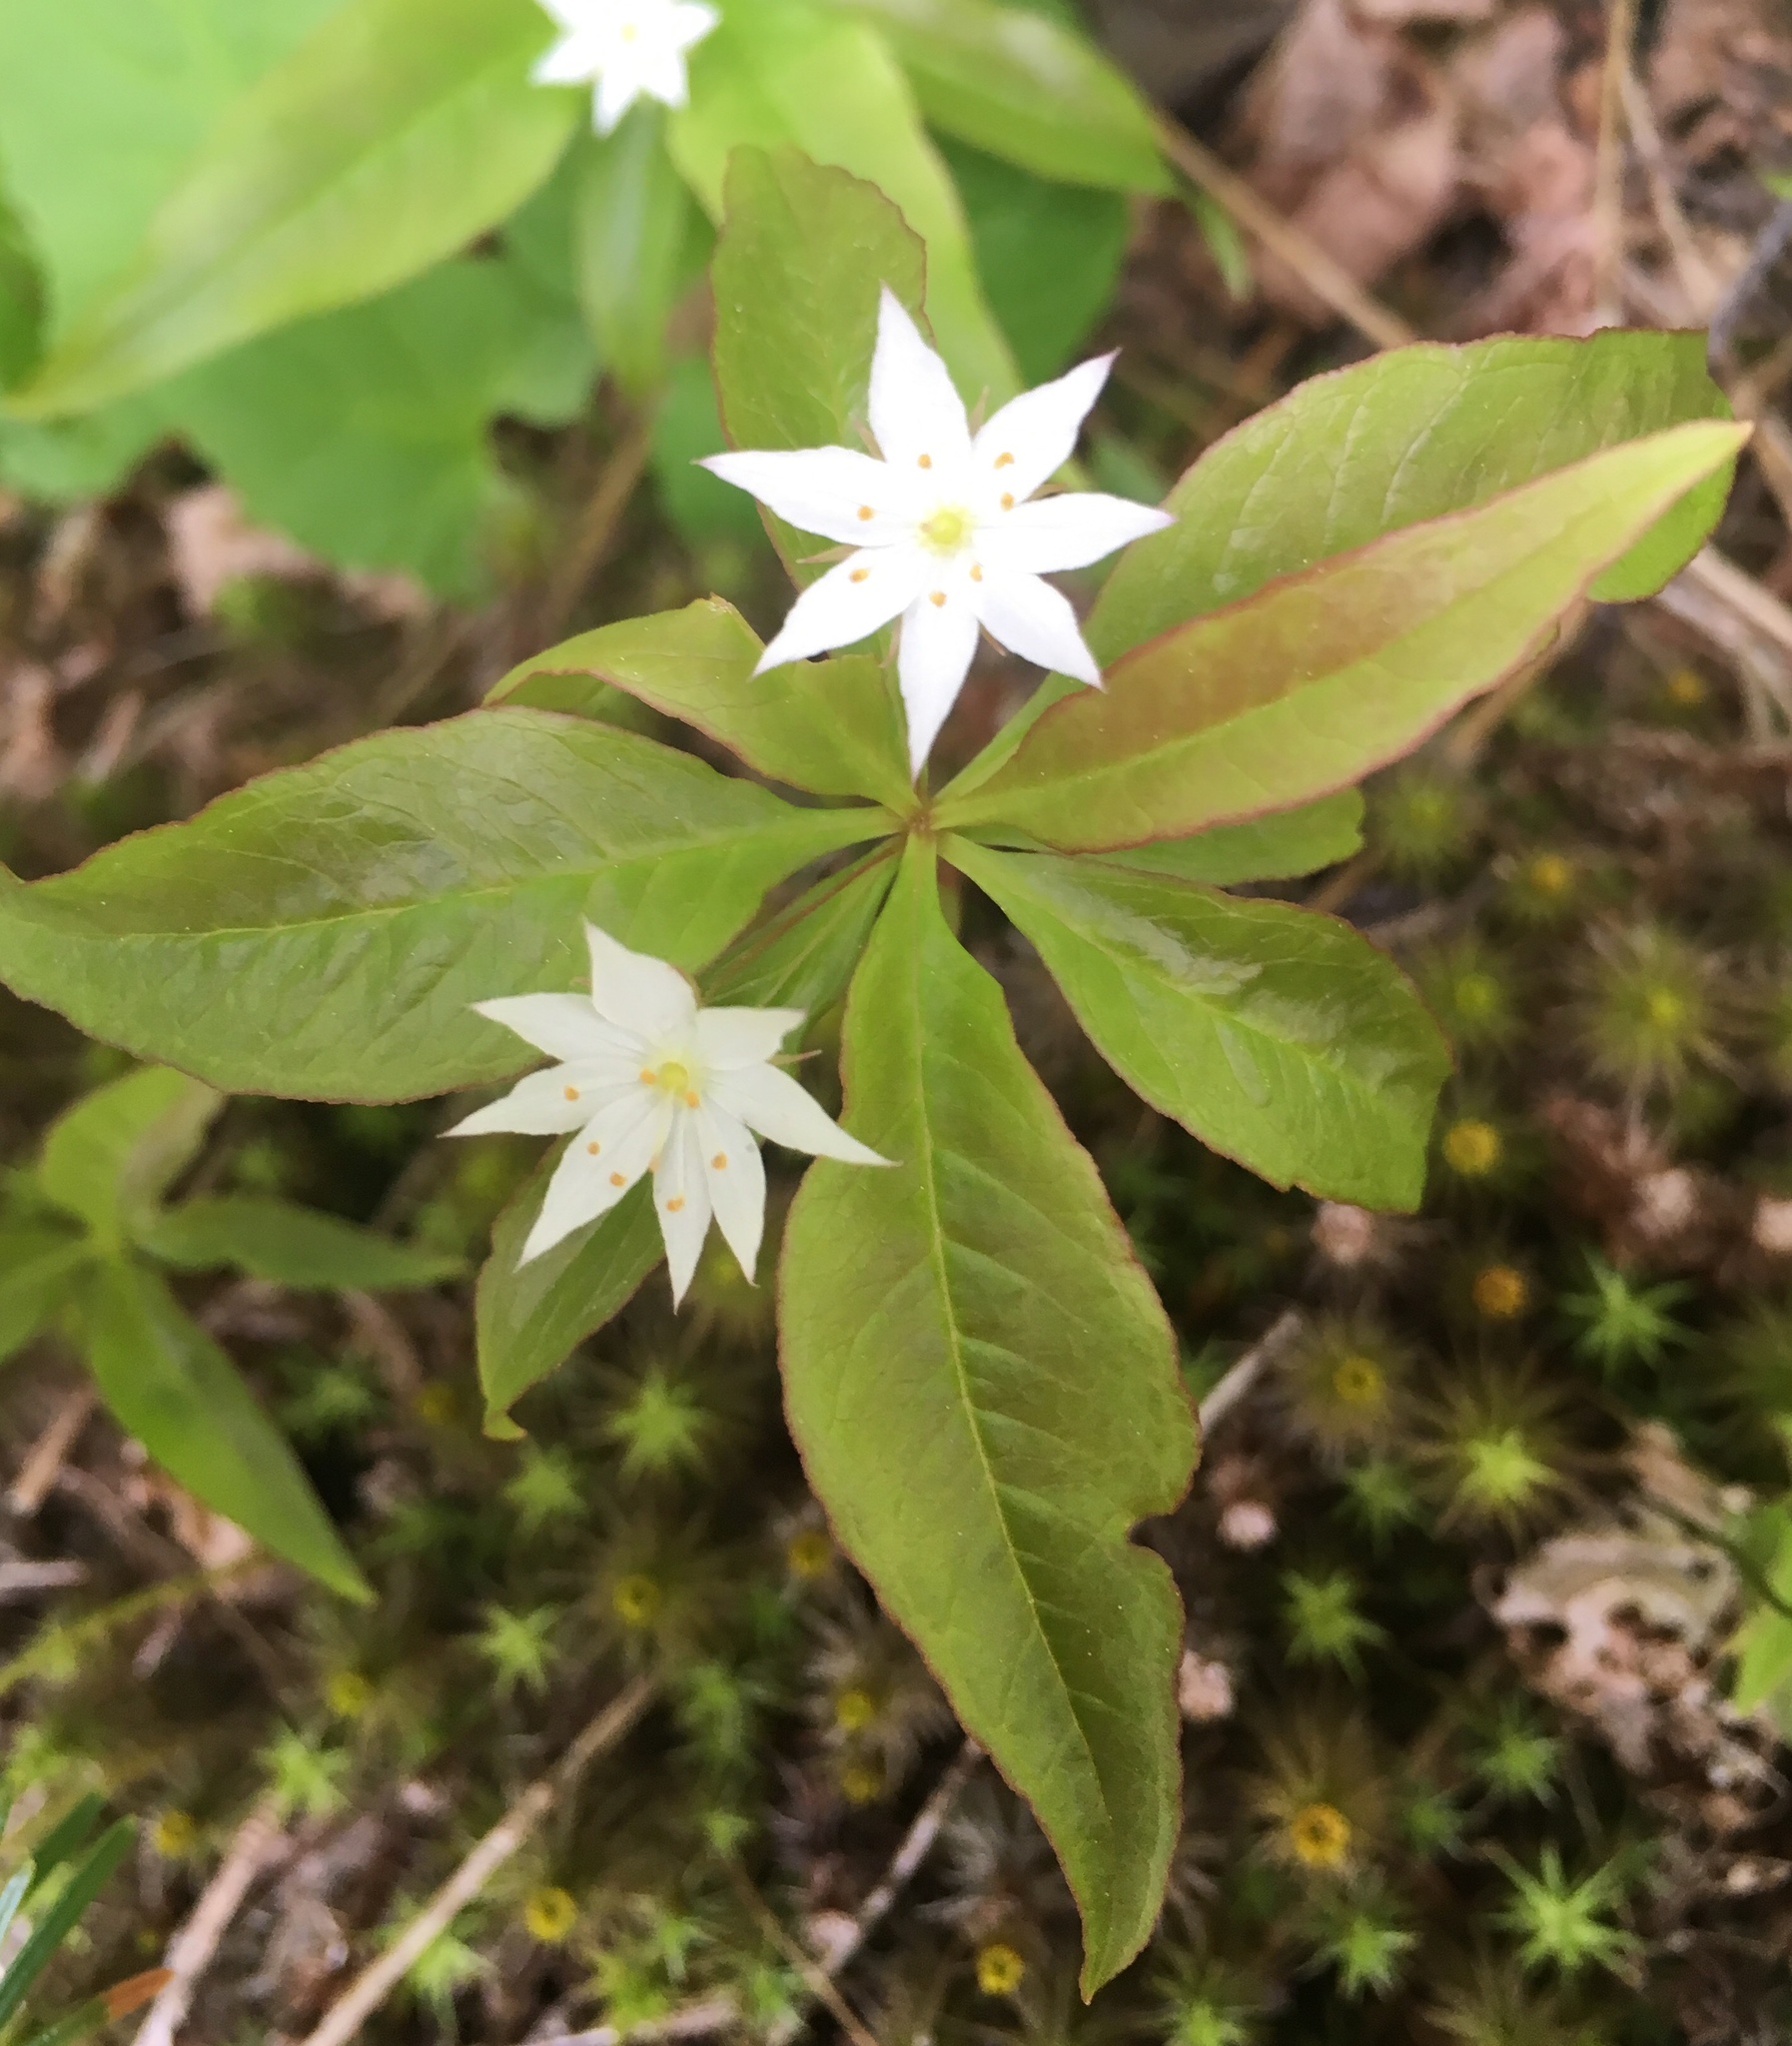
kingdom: Plantae
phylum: Tracheophyta
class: Magnoliopsida
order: Ericales
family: Primulaceae
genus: Lysimachia
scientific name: Lysimachia borealis
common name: American starflower
